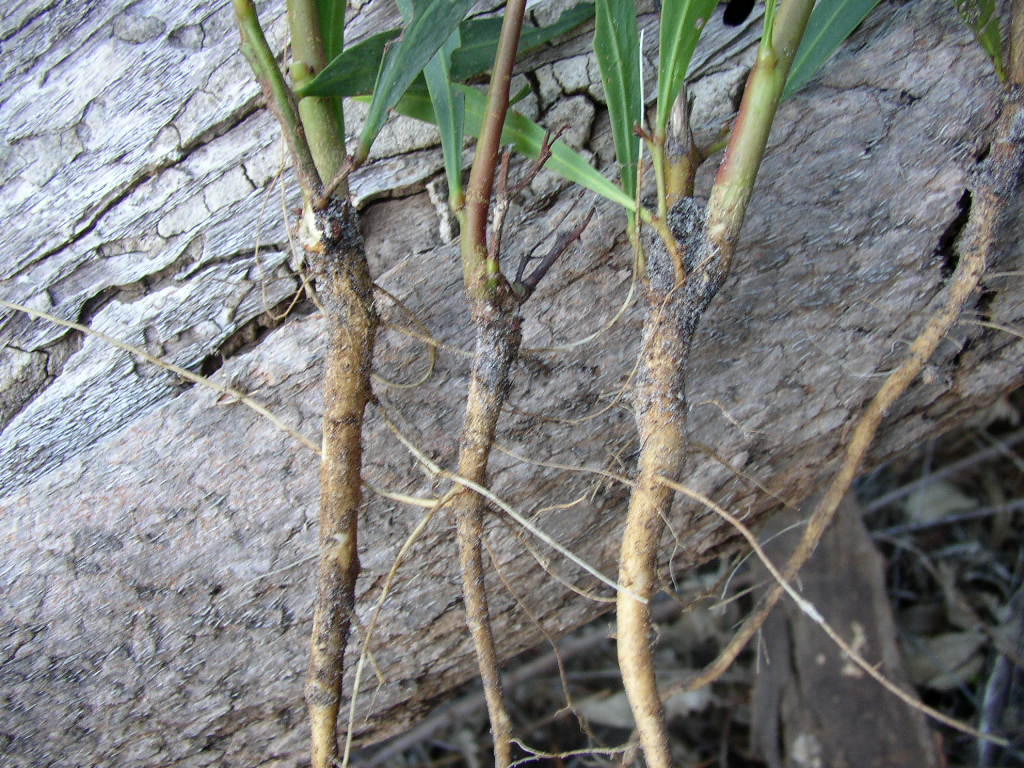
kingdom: Plantae
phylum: Tracheophyta
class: Magnoliopsida
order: Fabales
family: Fabaceae
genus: Acacia
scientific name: Acacia saligna
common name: Orange wattle
